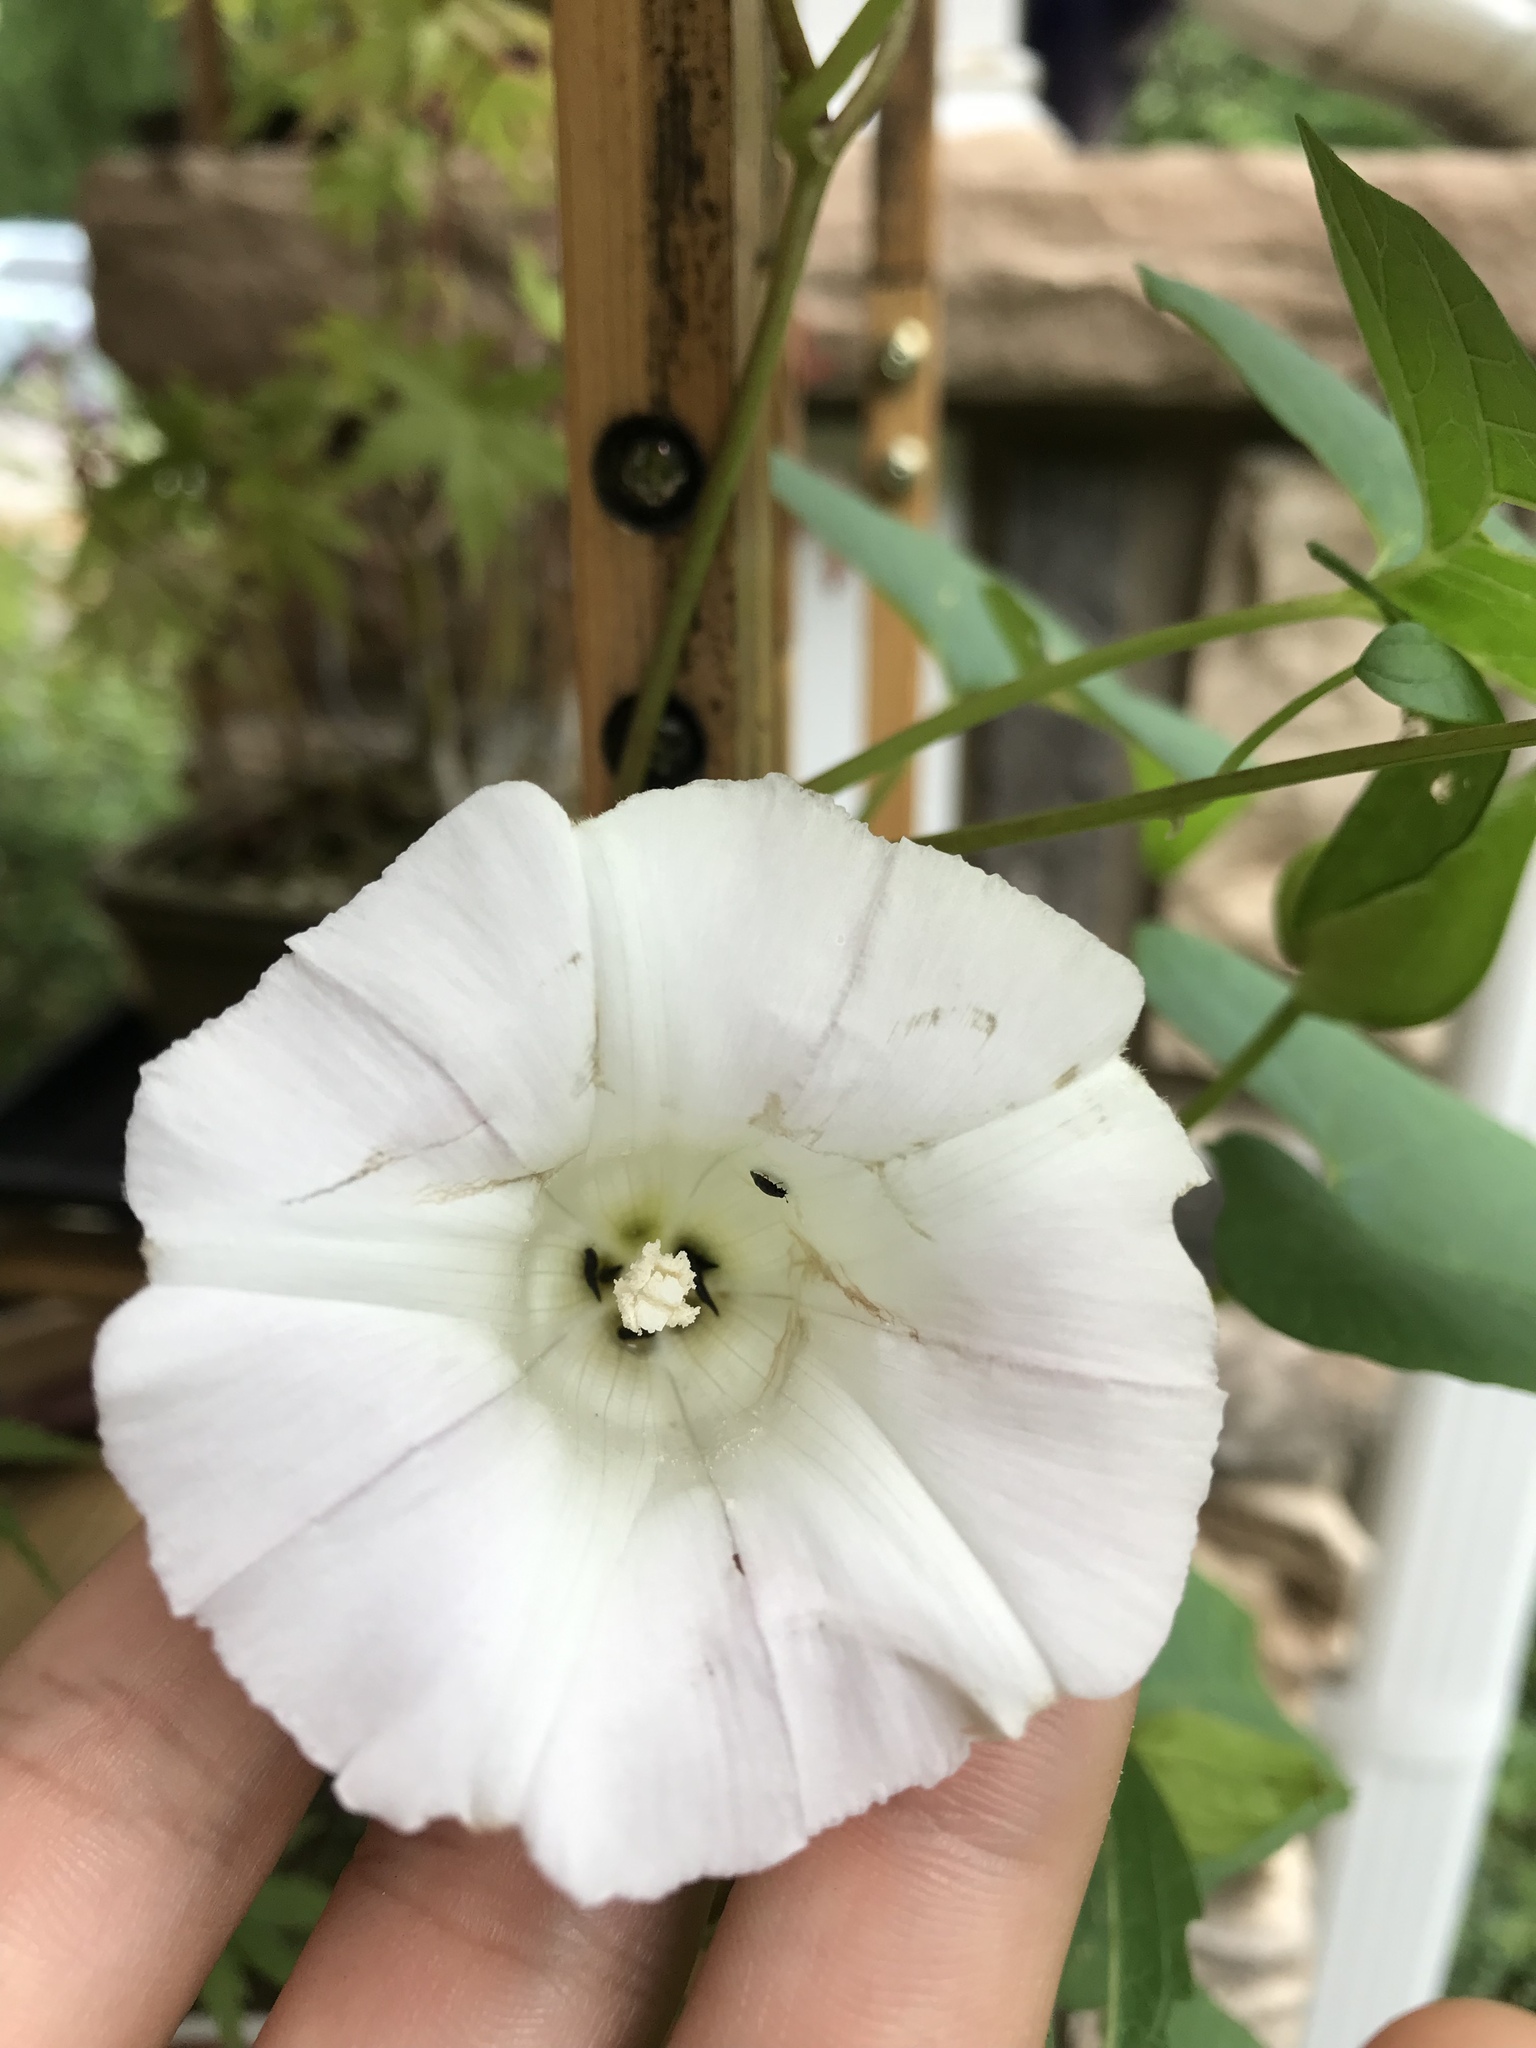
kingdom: Plantae
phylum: Tracheophyta
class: Magnoliopsida
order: Solanales
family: Convolvulaceae
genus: Calystegia
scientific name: Calystegia silvatica
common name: Large bindweed
